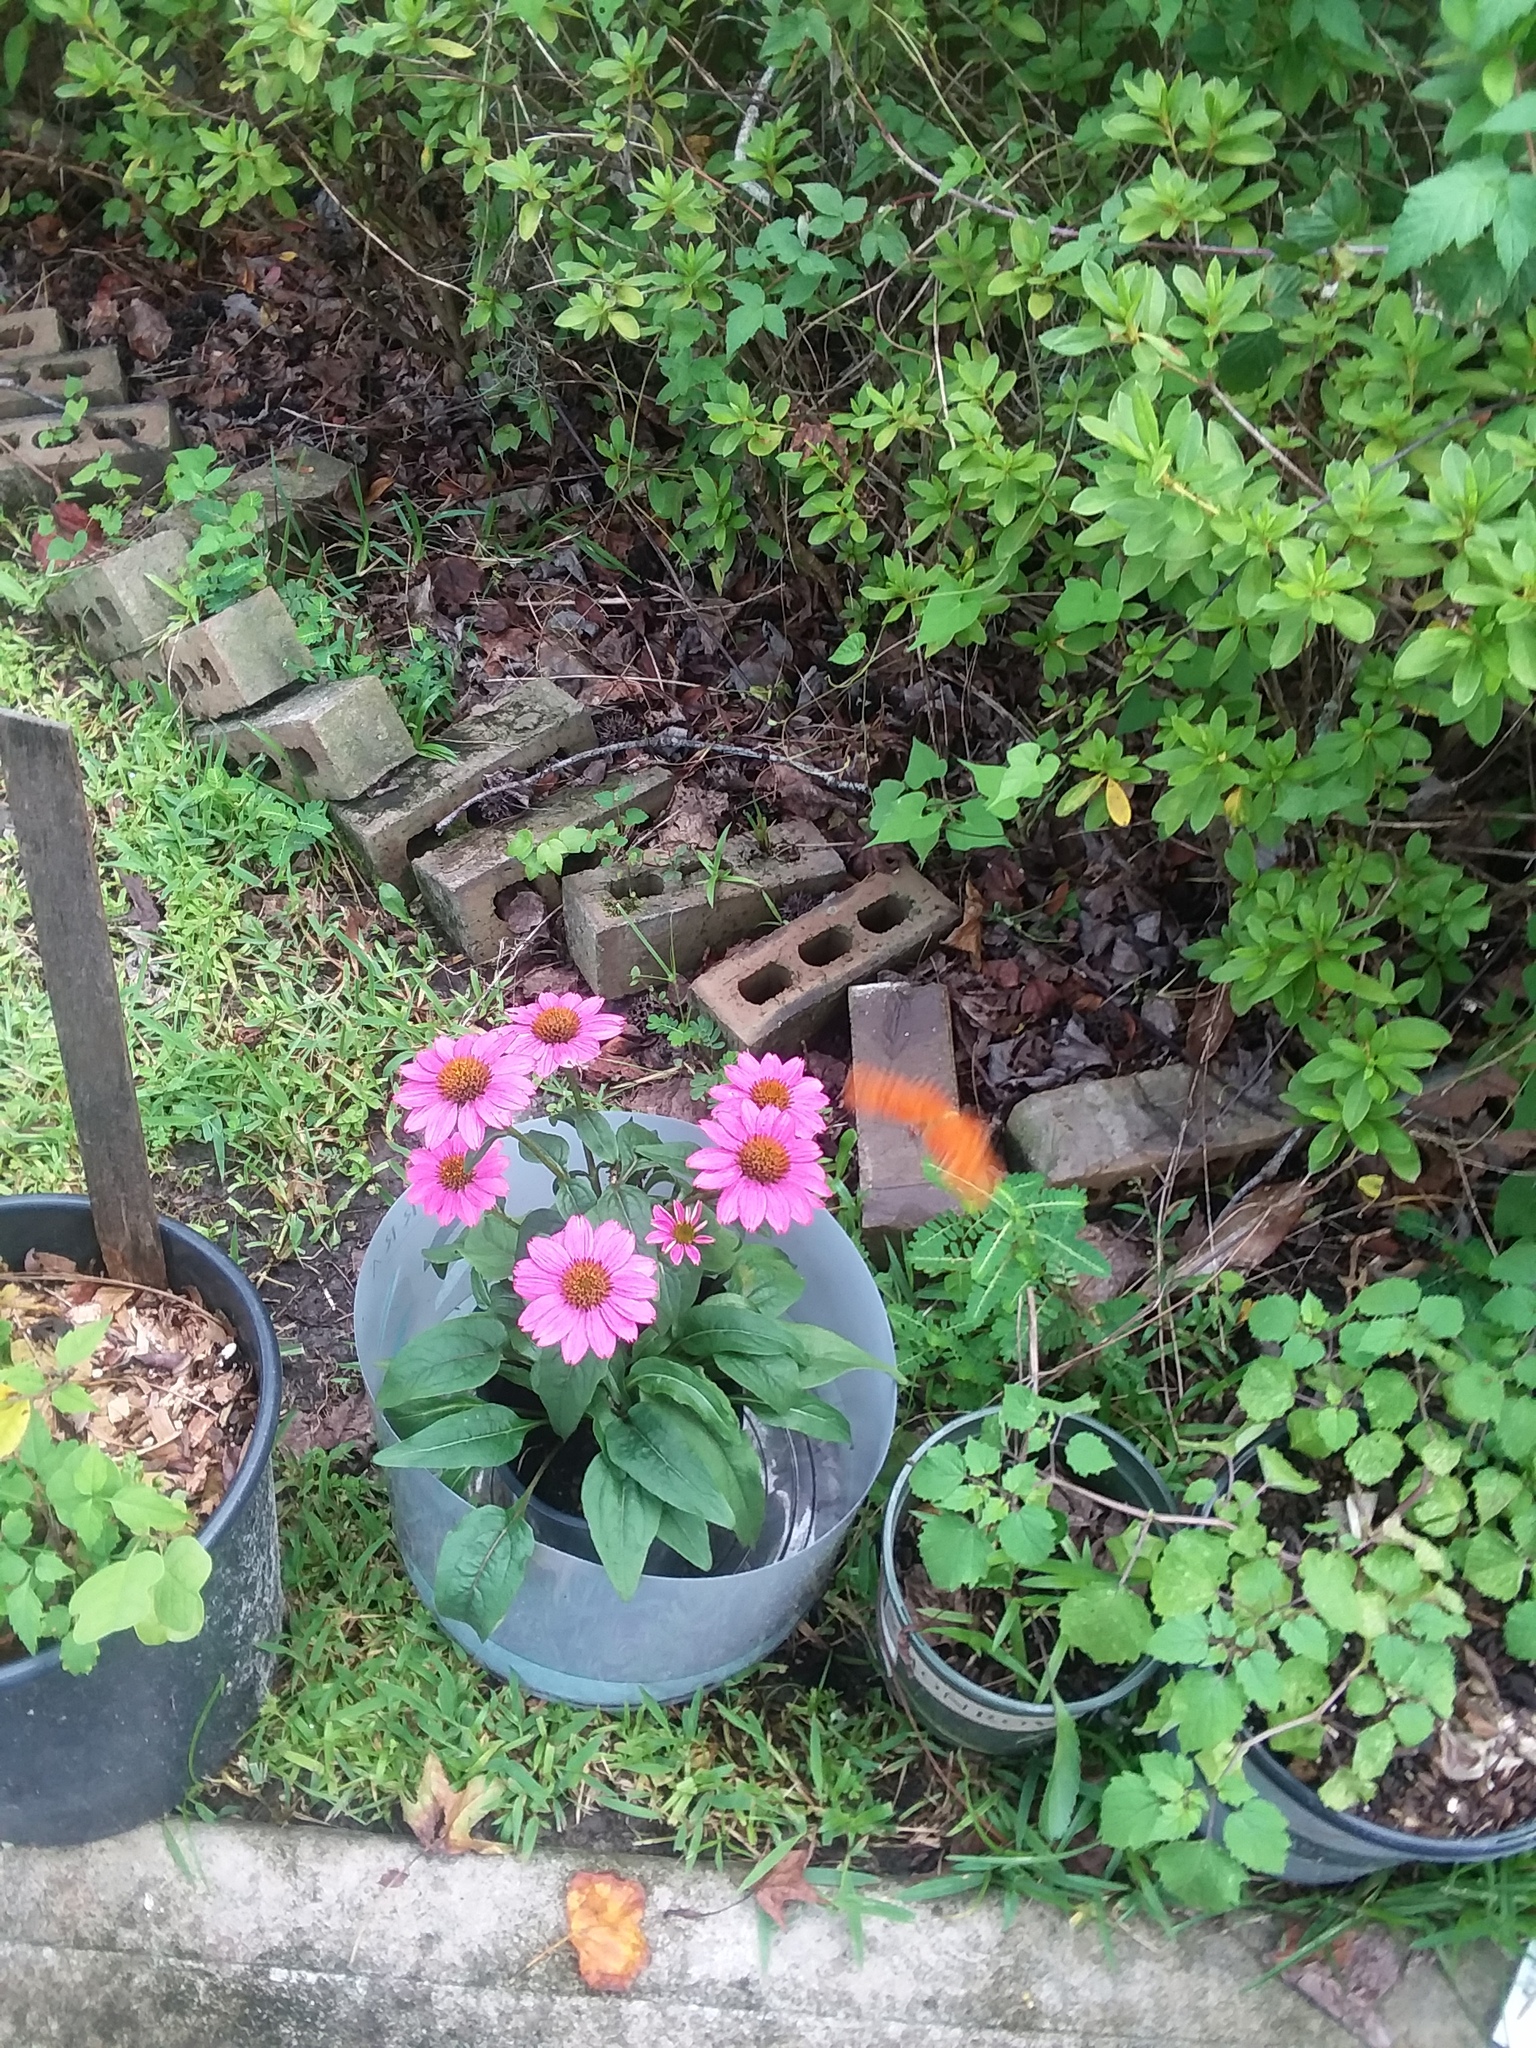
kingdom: Animalia
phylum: Arthropoda
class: Insecta
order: Lepidoptera
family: Nymphalidae
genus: Dione
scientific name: Dione vanillae
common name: Gulf fritillary
